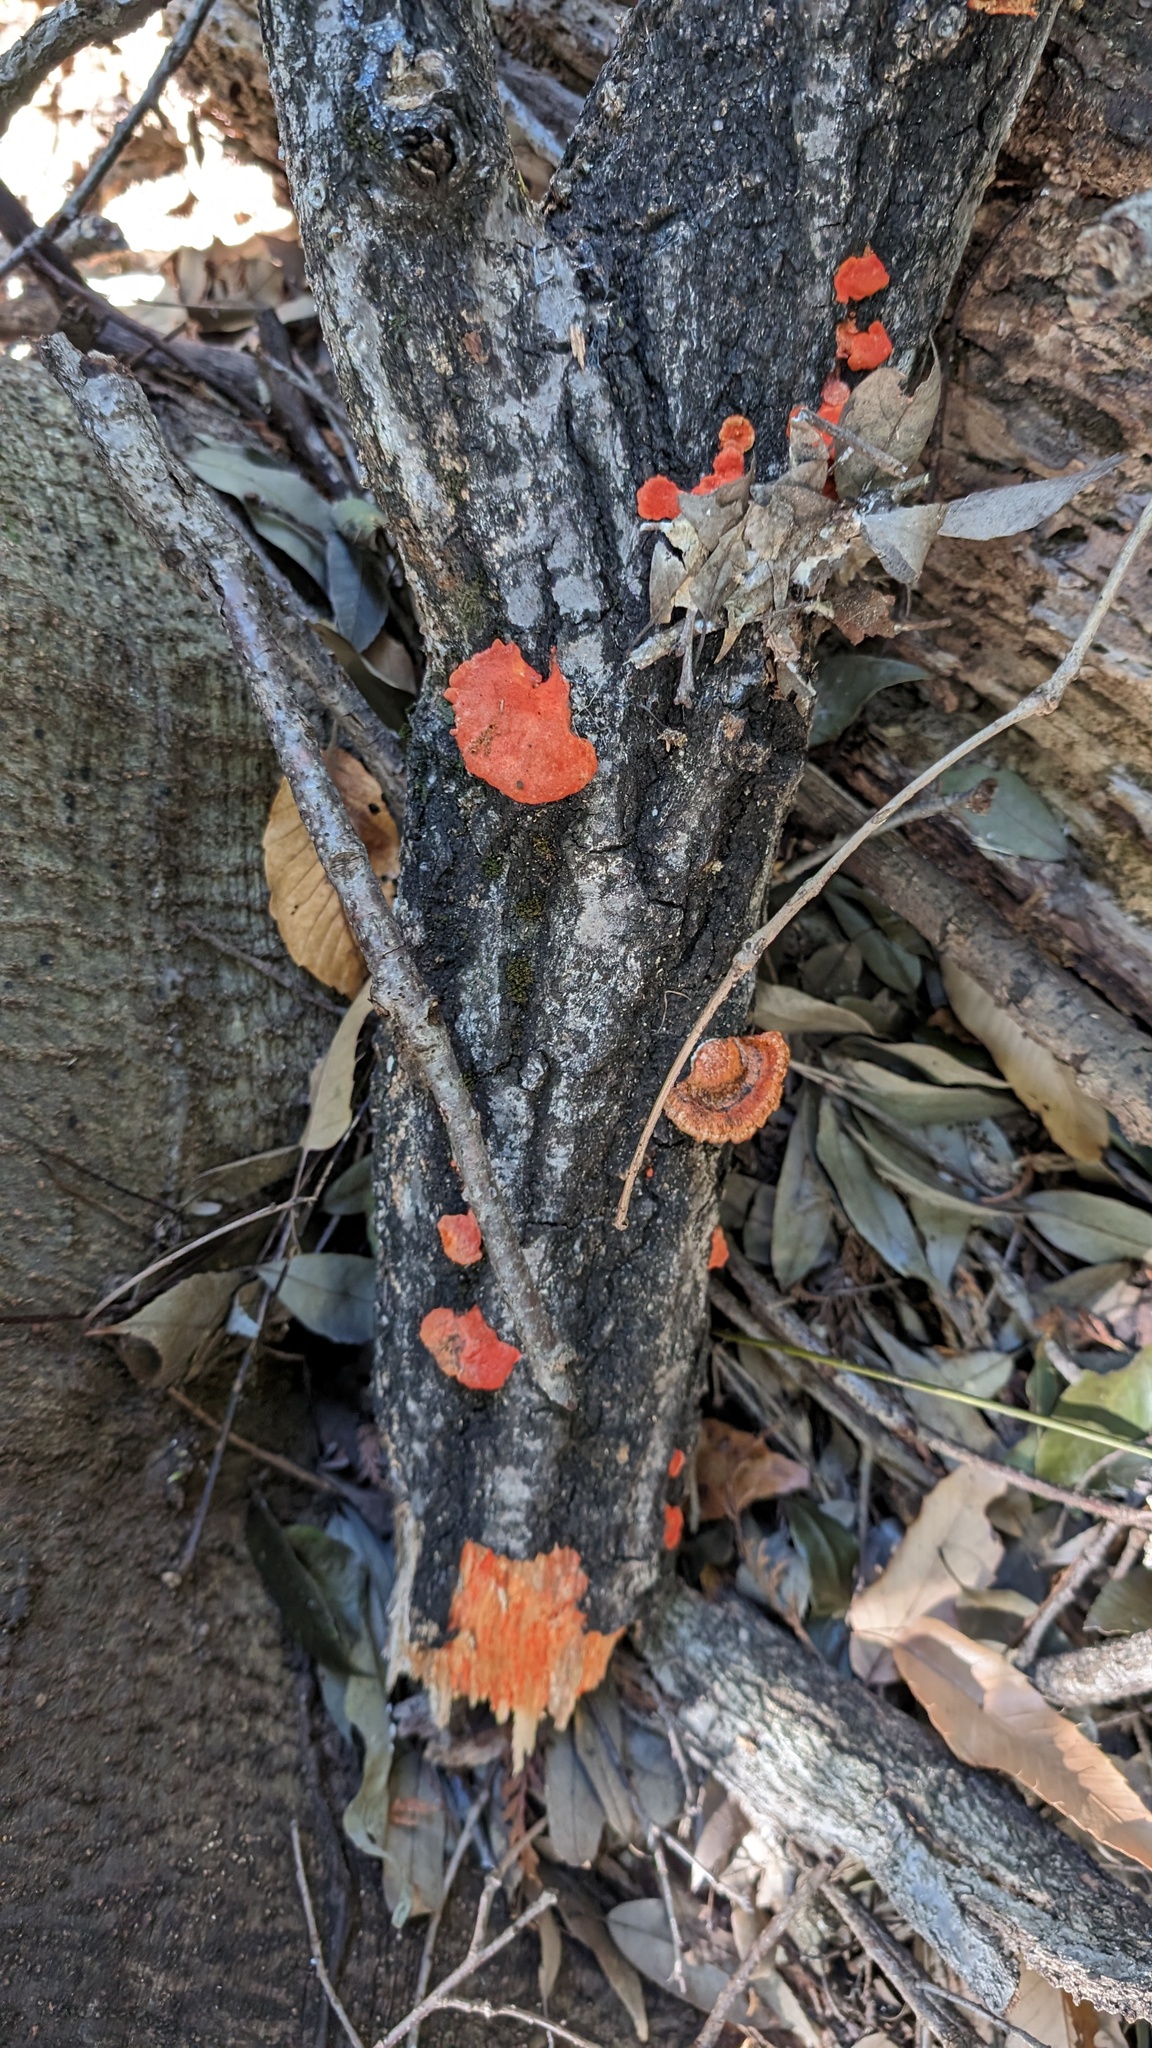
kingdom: Fungi
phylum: Basidiomycota
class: Agaricomycetes
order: Polyporales
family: Polyporaceae
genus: Trametes
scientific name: Trametes coccinea
